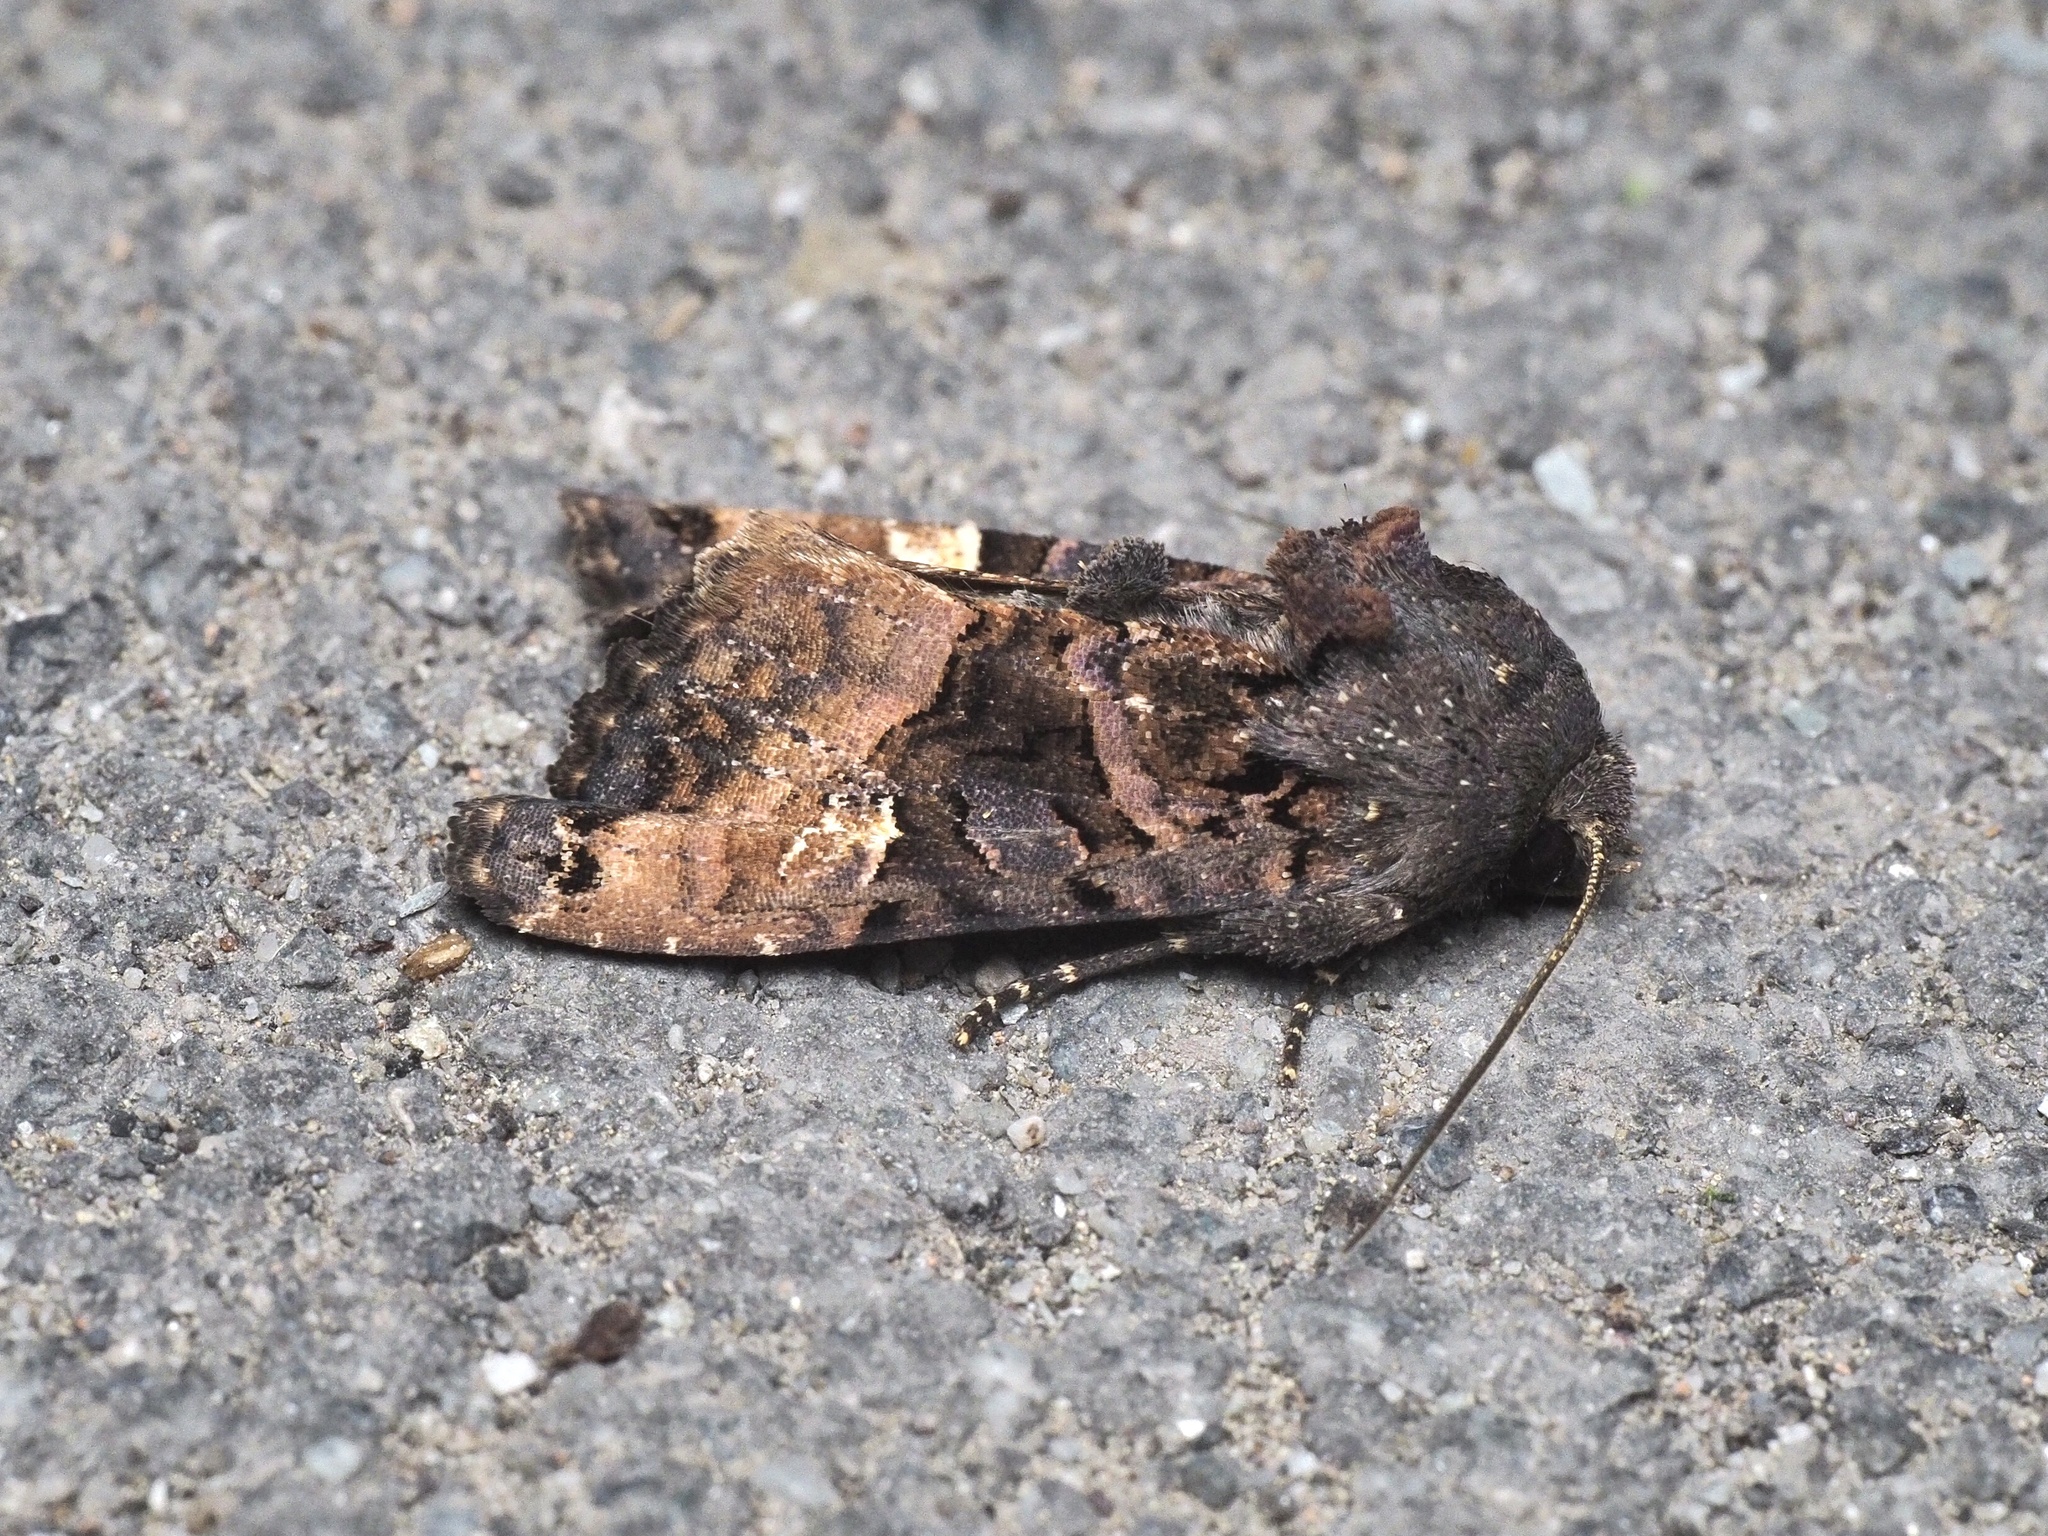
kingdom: Animalia
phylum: Arthropoda
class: Insecta
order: Lepidoptera
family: Noctuidae
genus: Euplexia
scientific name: Euplexia lucipara
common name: Small angle shades
